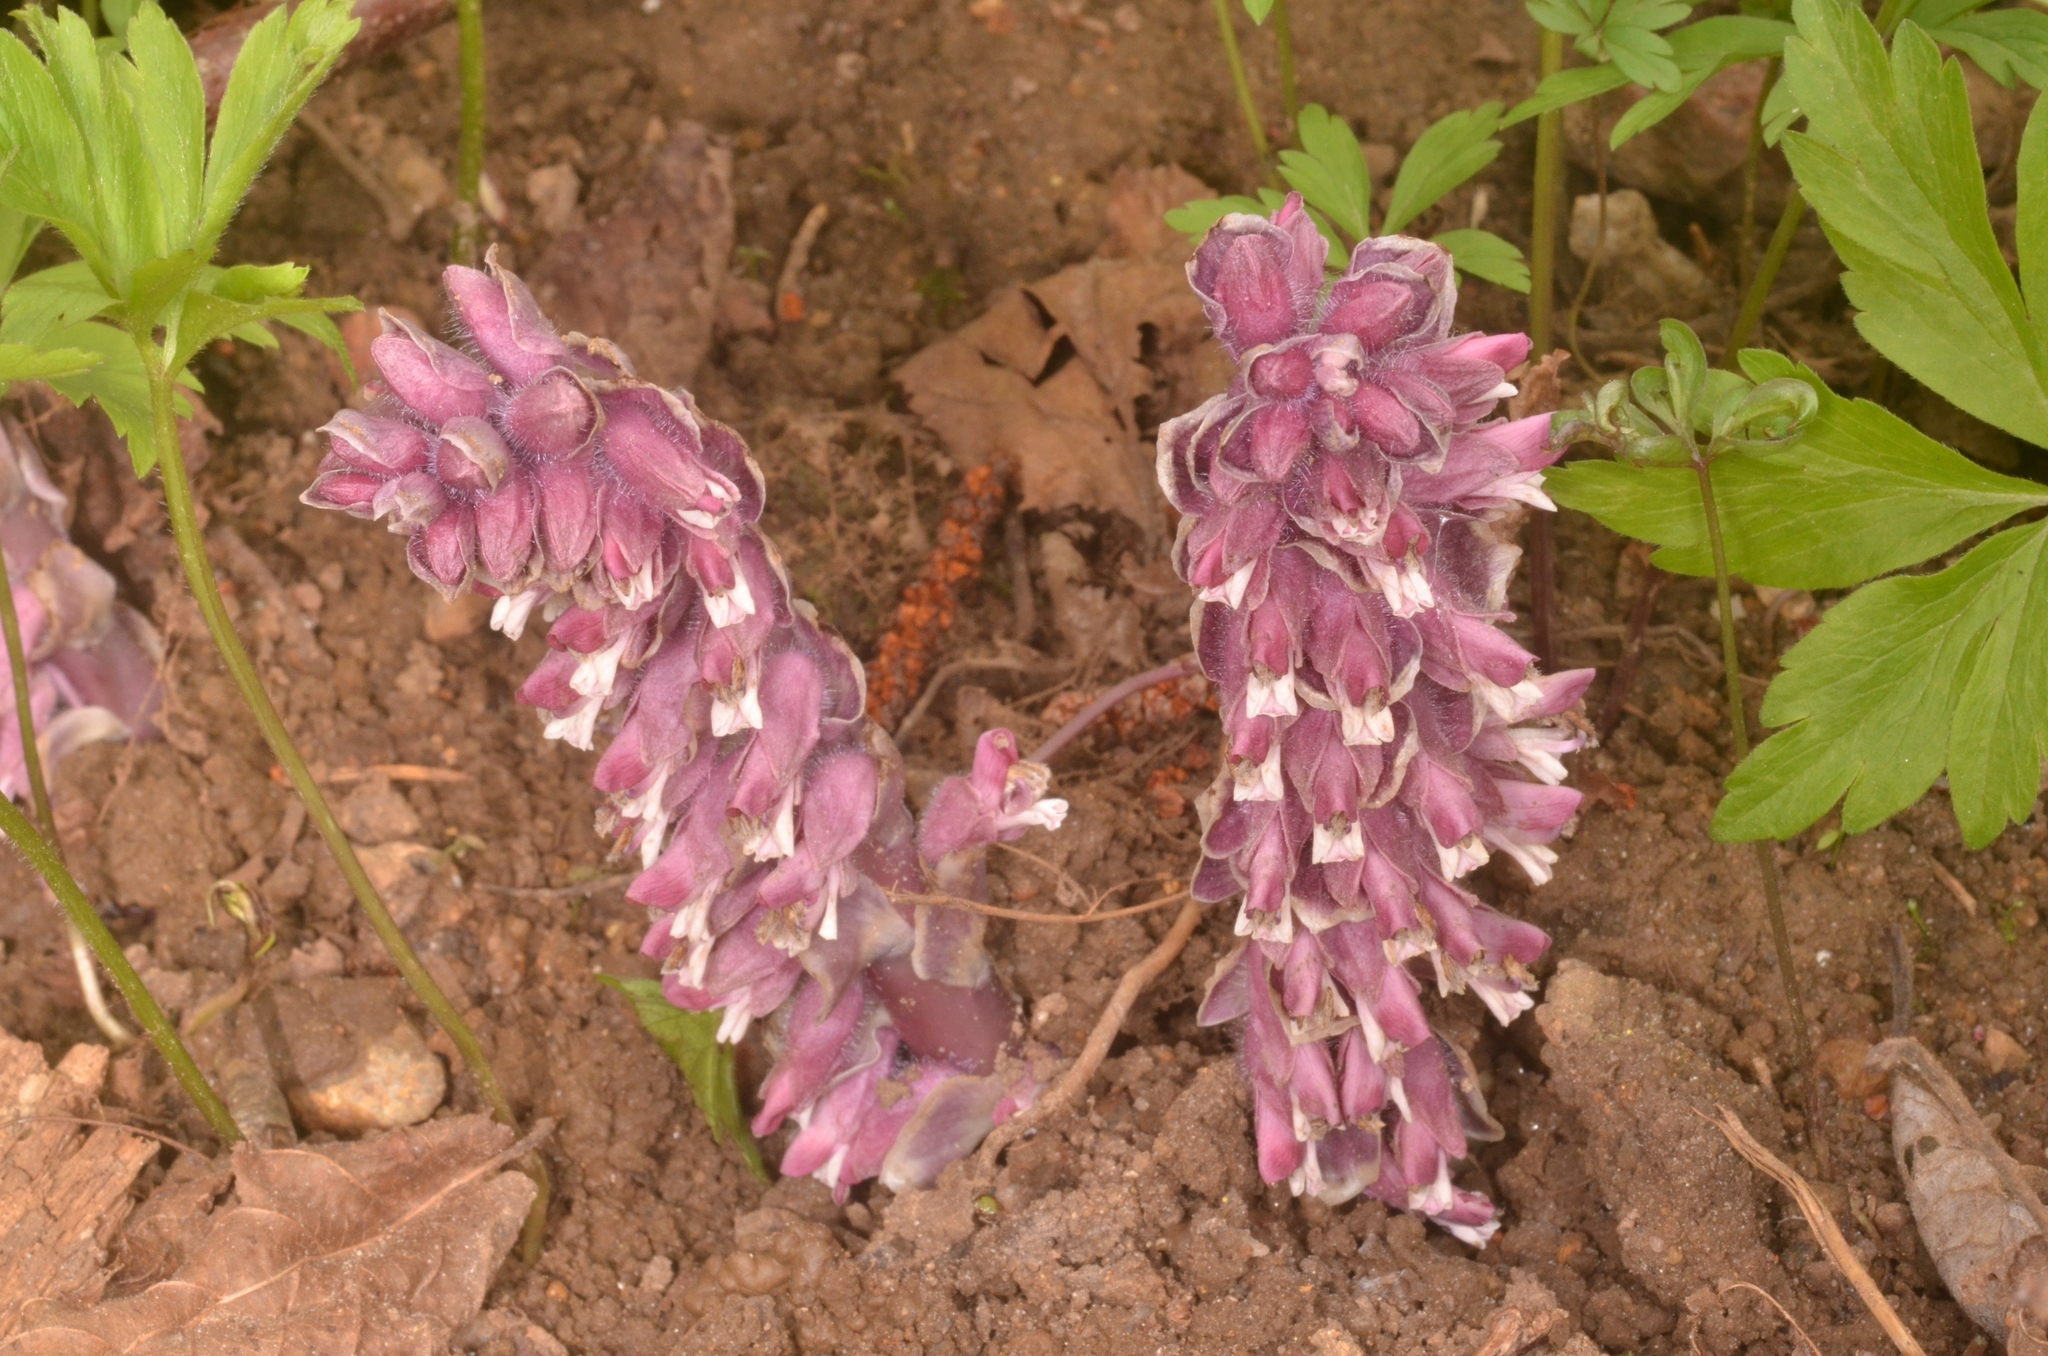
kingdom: Plantae
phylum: Tracheophyta
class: Magnoliopsida
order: Lamiales
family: Orobanchaceae
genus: Lathraea
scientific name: Lathraea squamaria
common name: Toothwort
